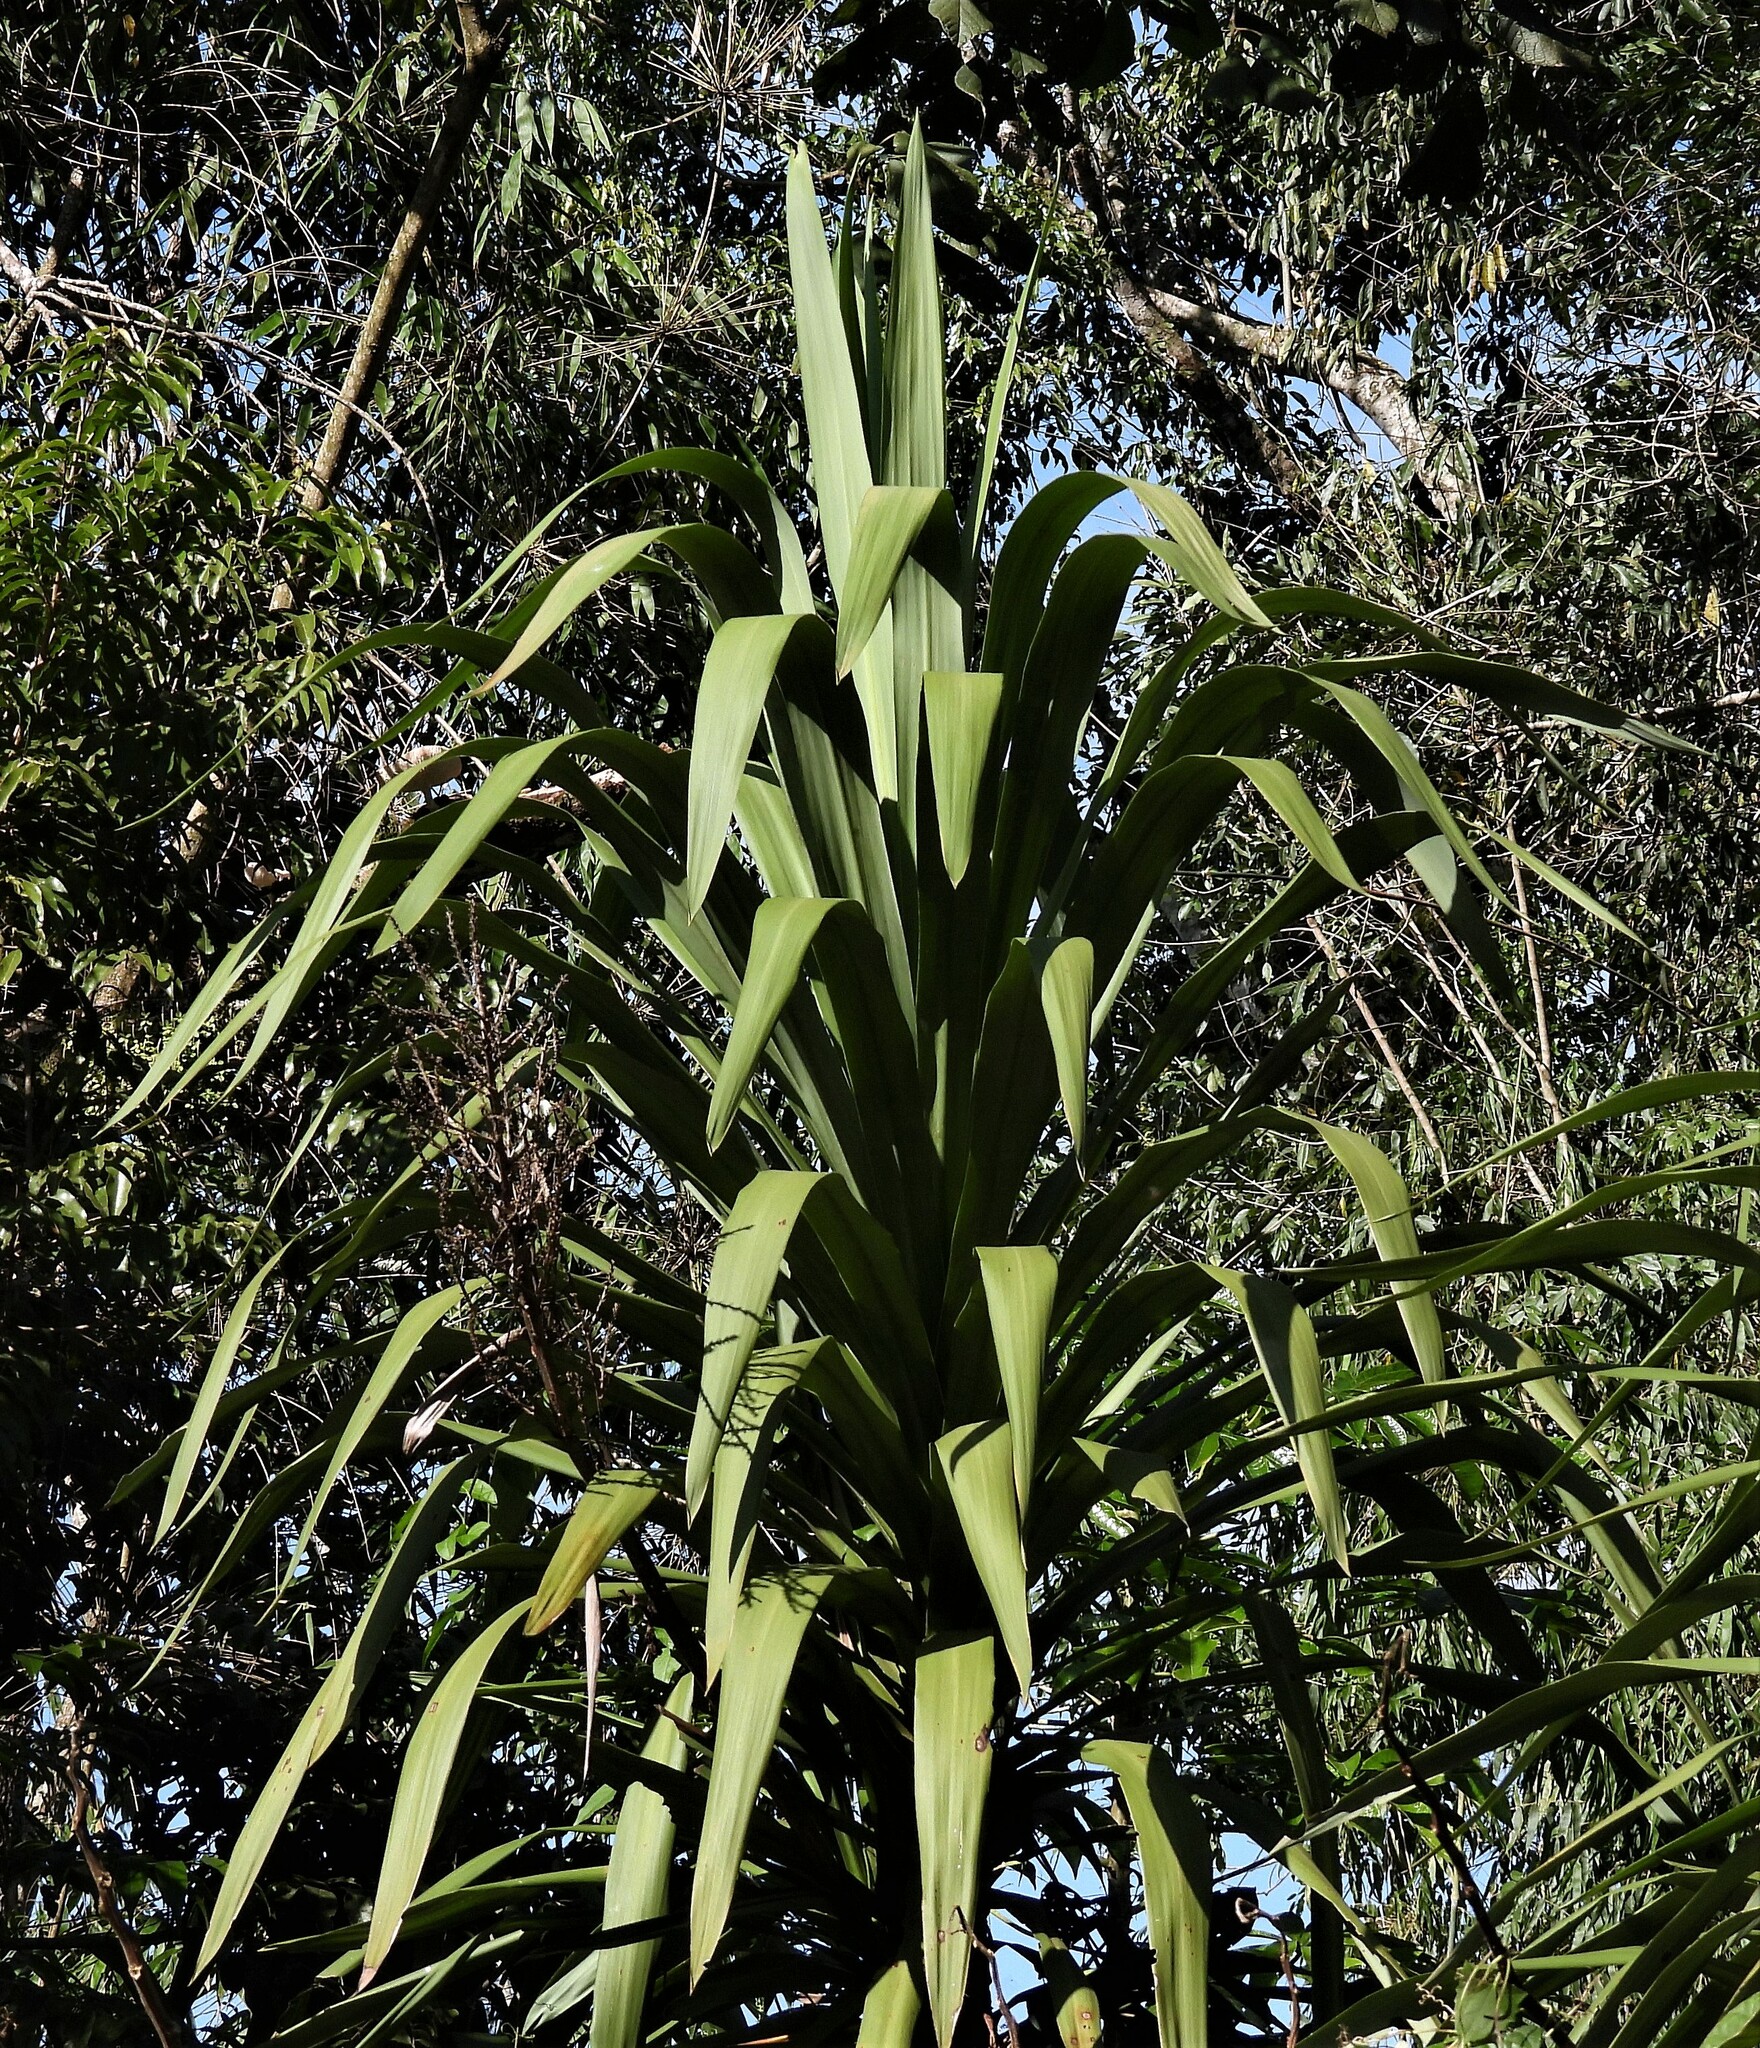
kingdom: Plantae
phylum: Tracheophyta
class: Liliopsida
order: Asparagales
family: Asparagaceae
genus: Cordyline
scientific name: Cordyline sellowiana
